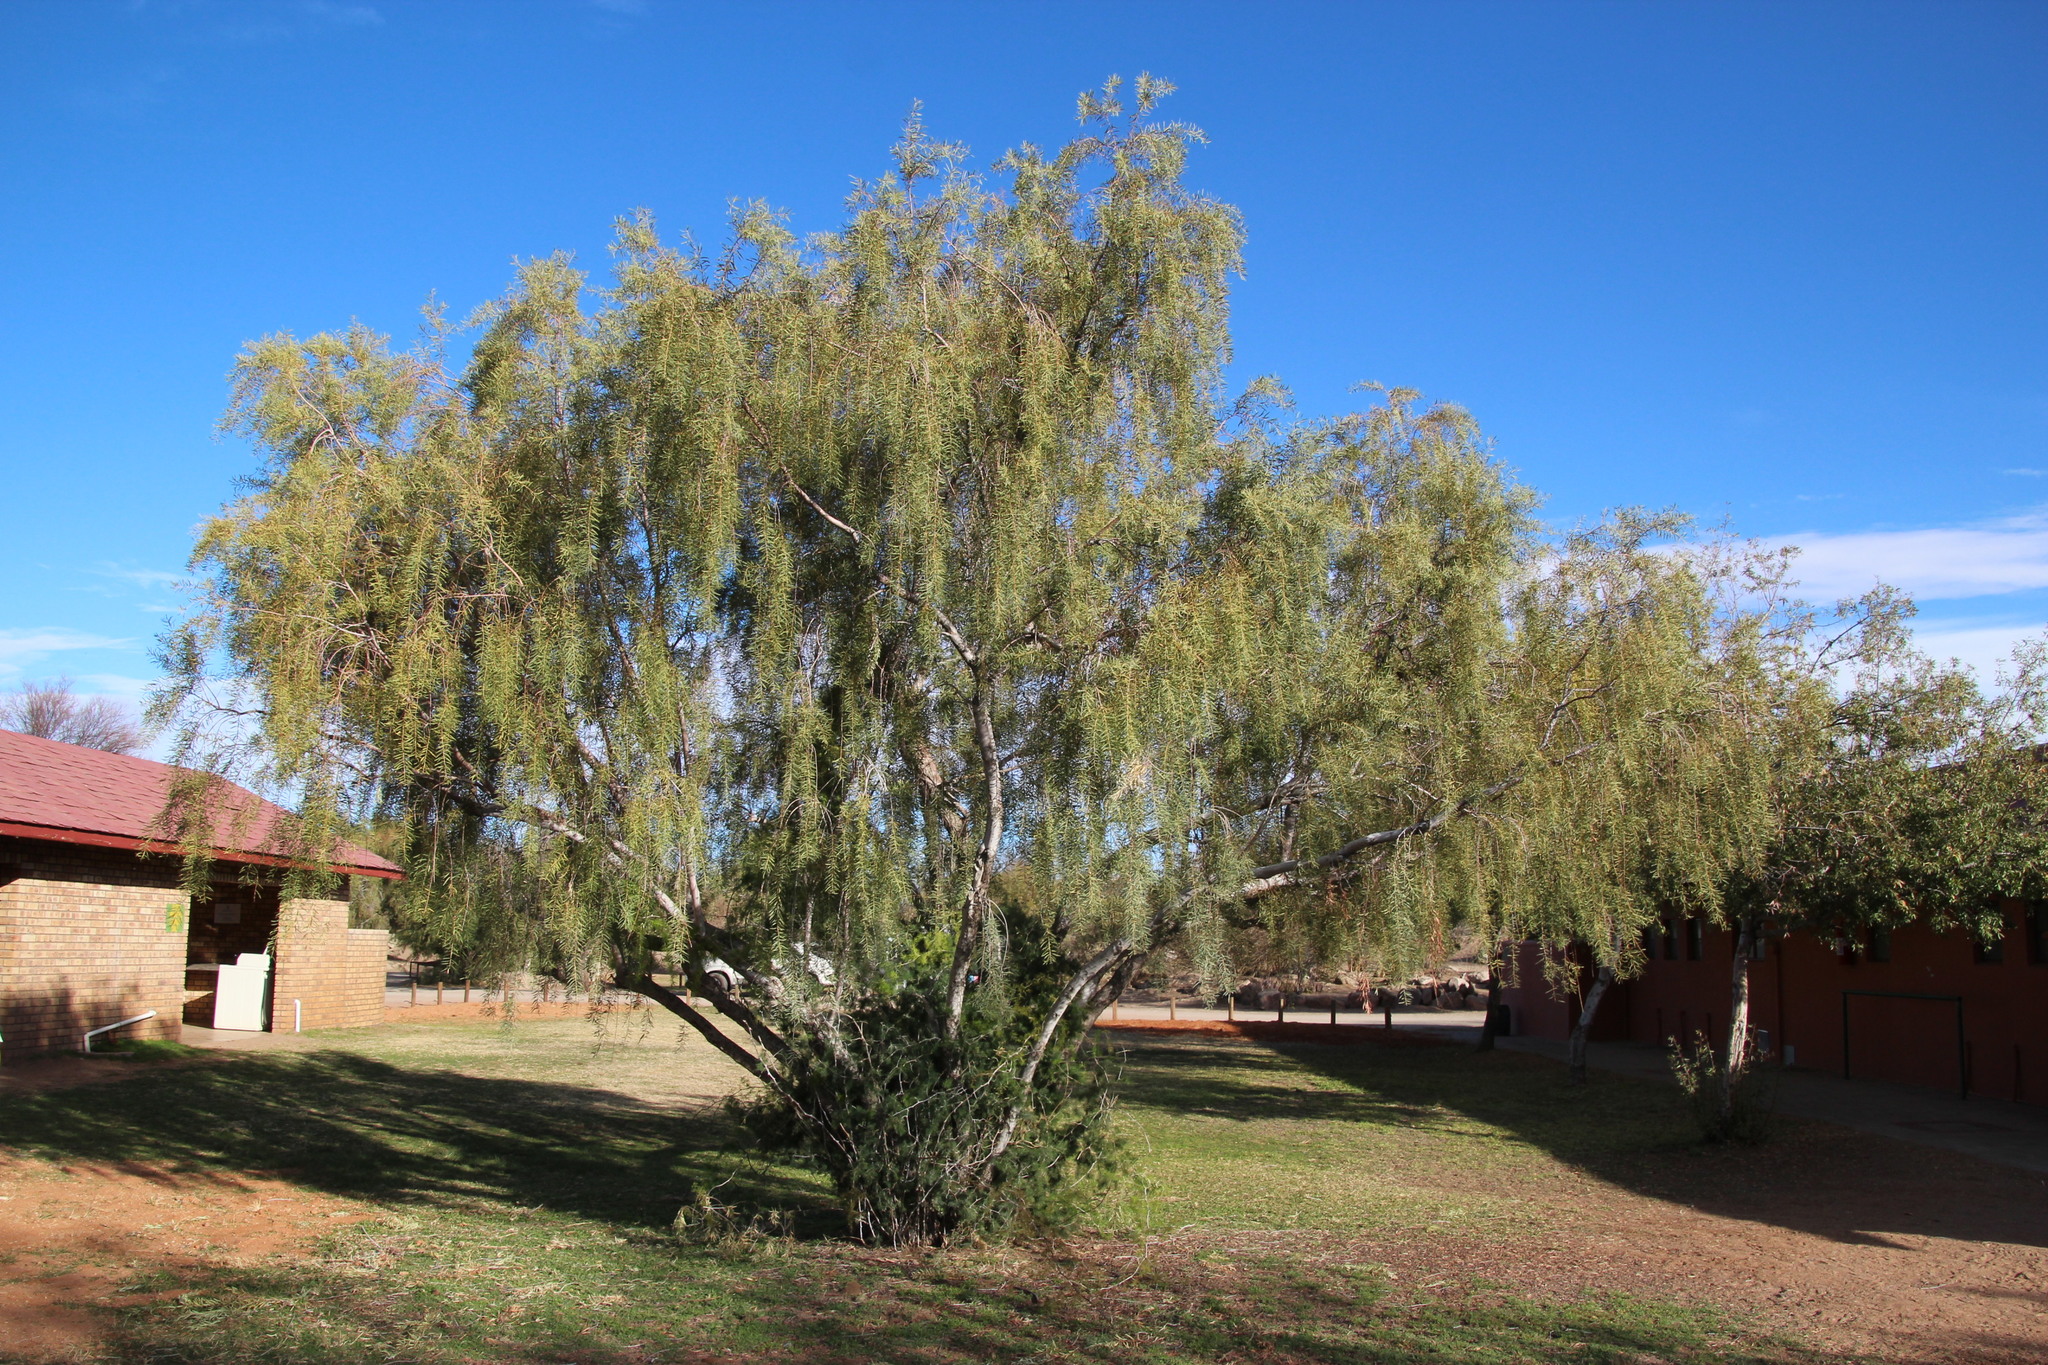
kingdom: Plantae
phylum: Tracheophyta
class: Magnoliopsida
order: Ericales
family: Ebenaceae
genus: Euclea
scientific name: Euclea pseudebenus
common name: Black ebony
